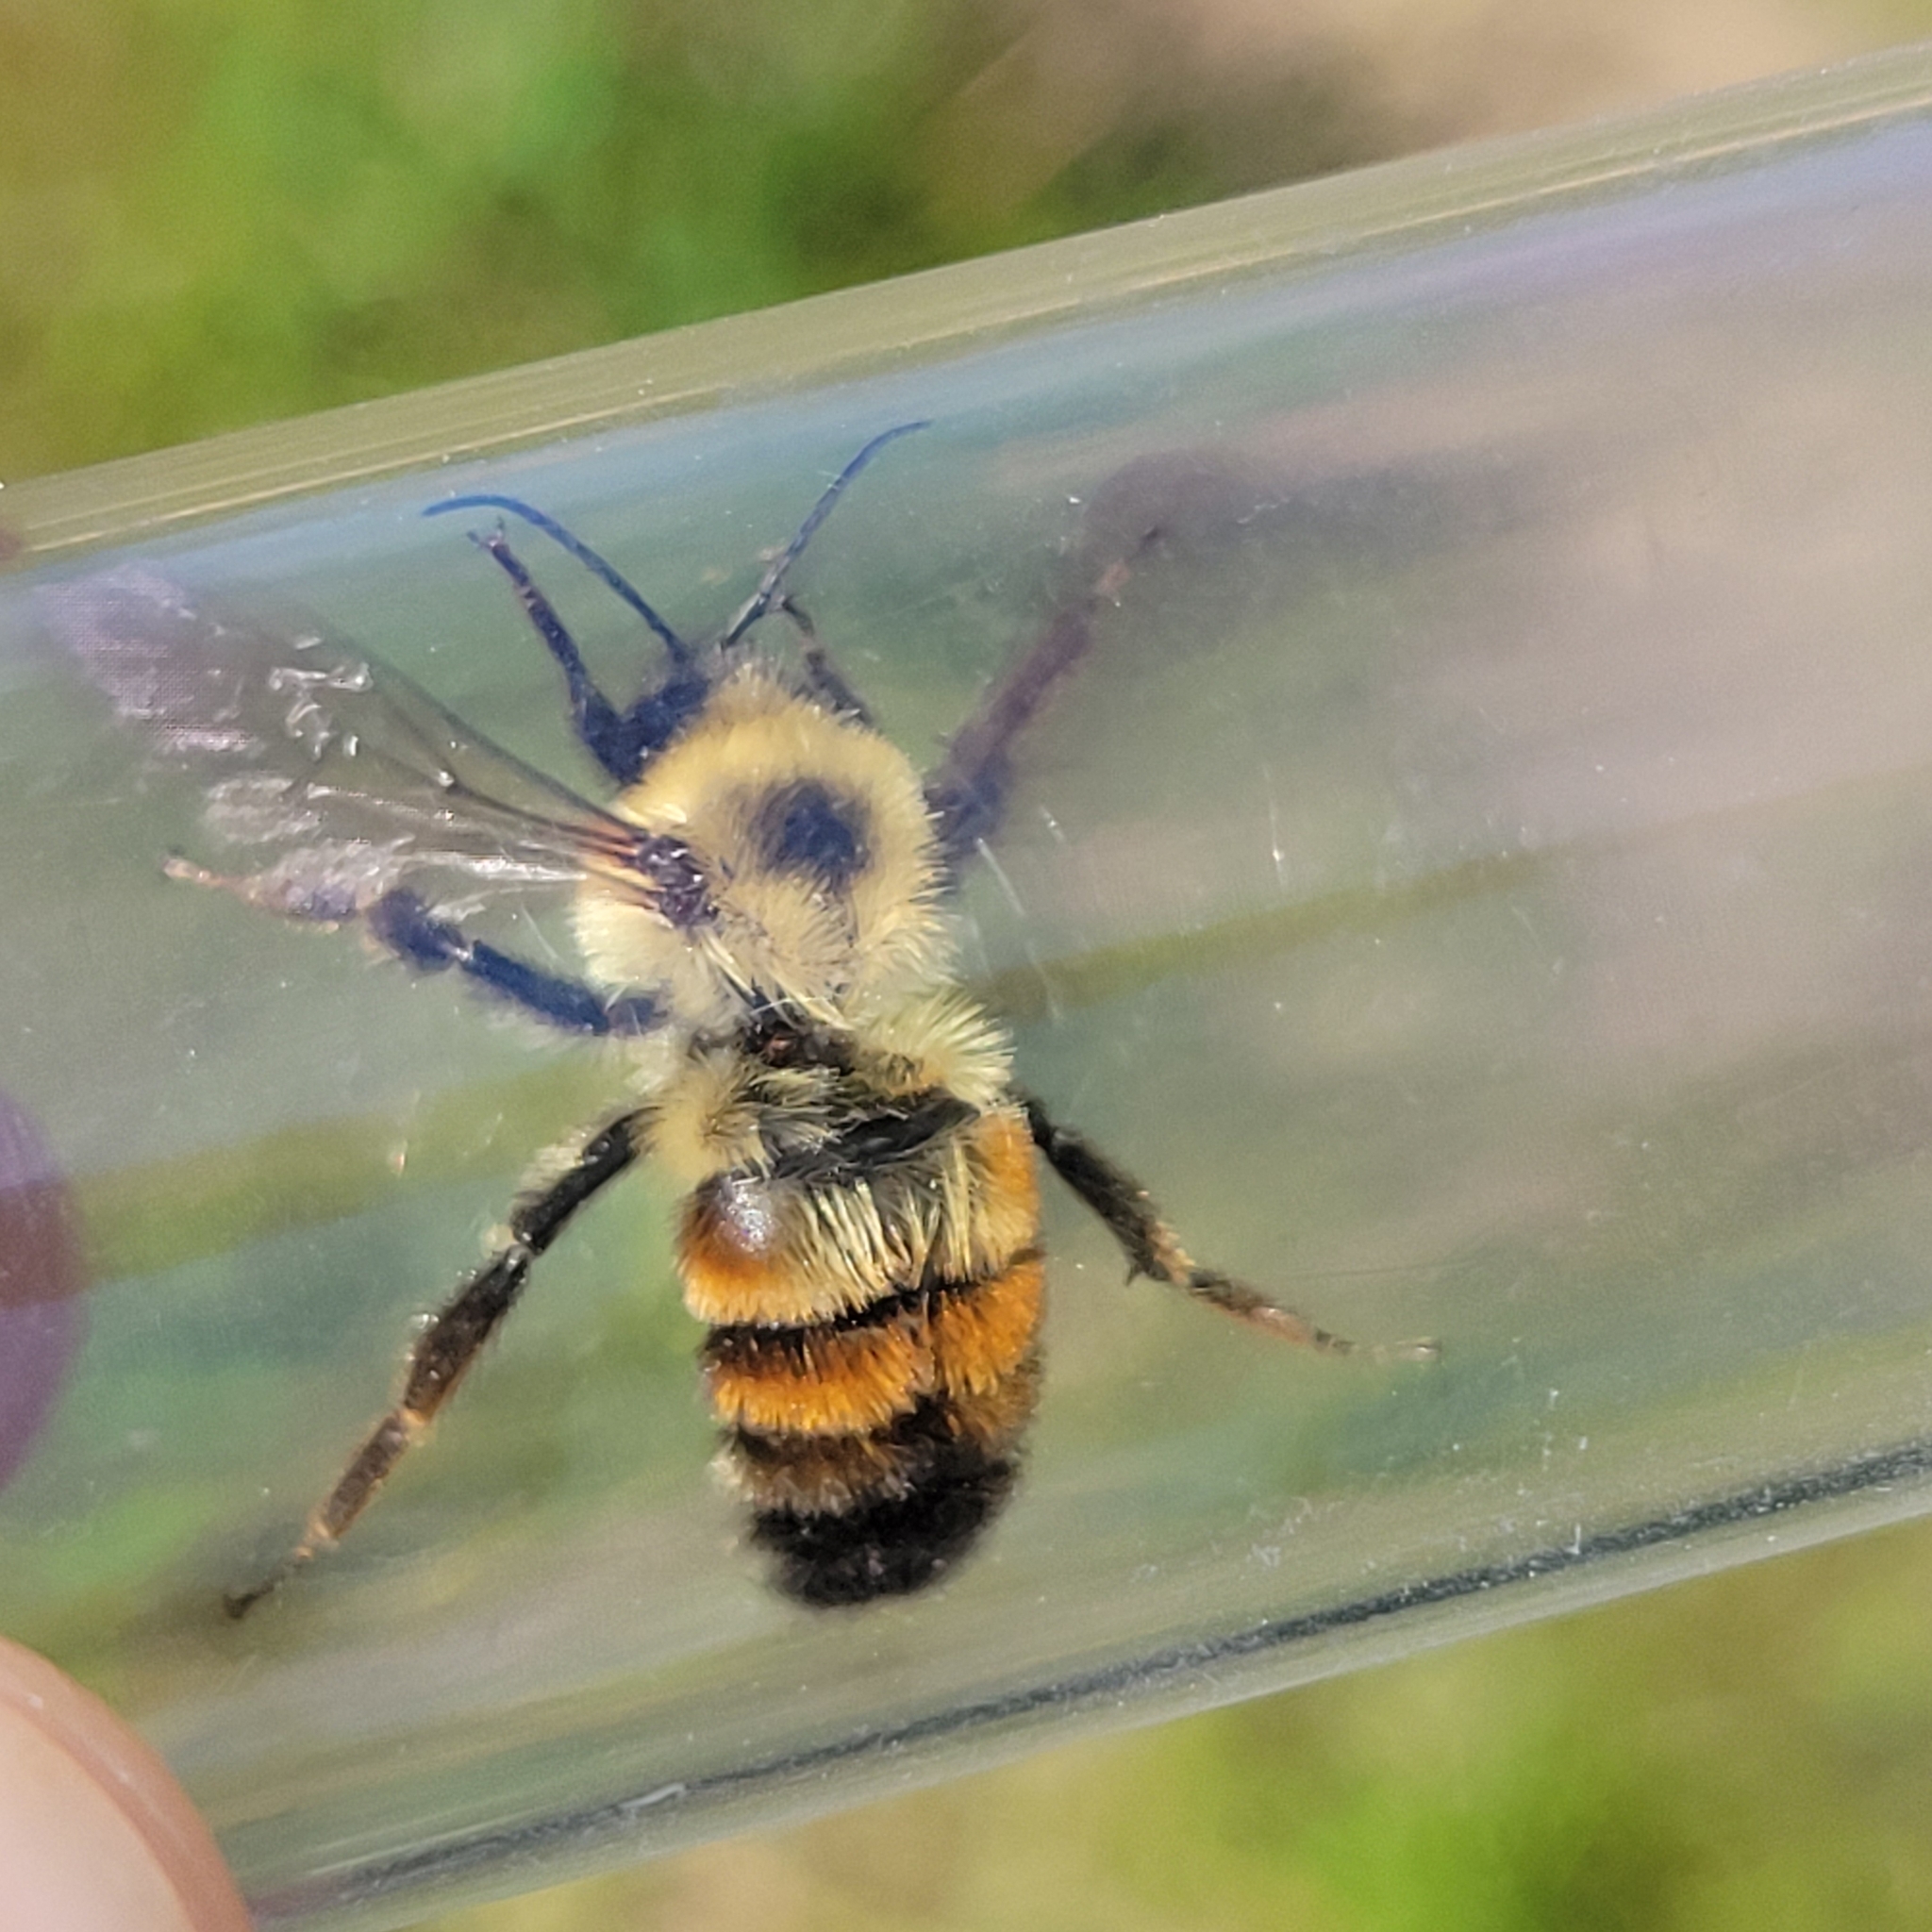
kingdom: Animalia
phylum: Arthropoda
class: Insecta
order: Hymenoptera
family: Apidae
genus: Bombus
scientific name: Bombus bimaculatus
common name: Two-spotted bumble bee
